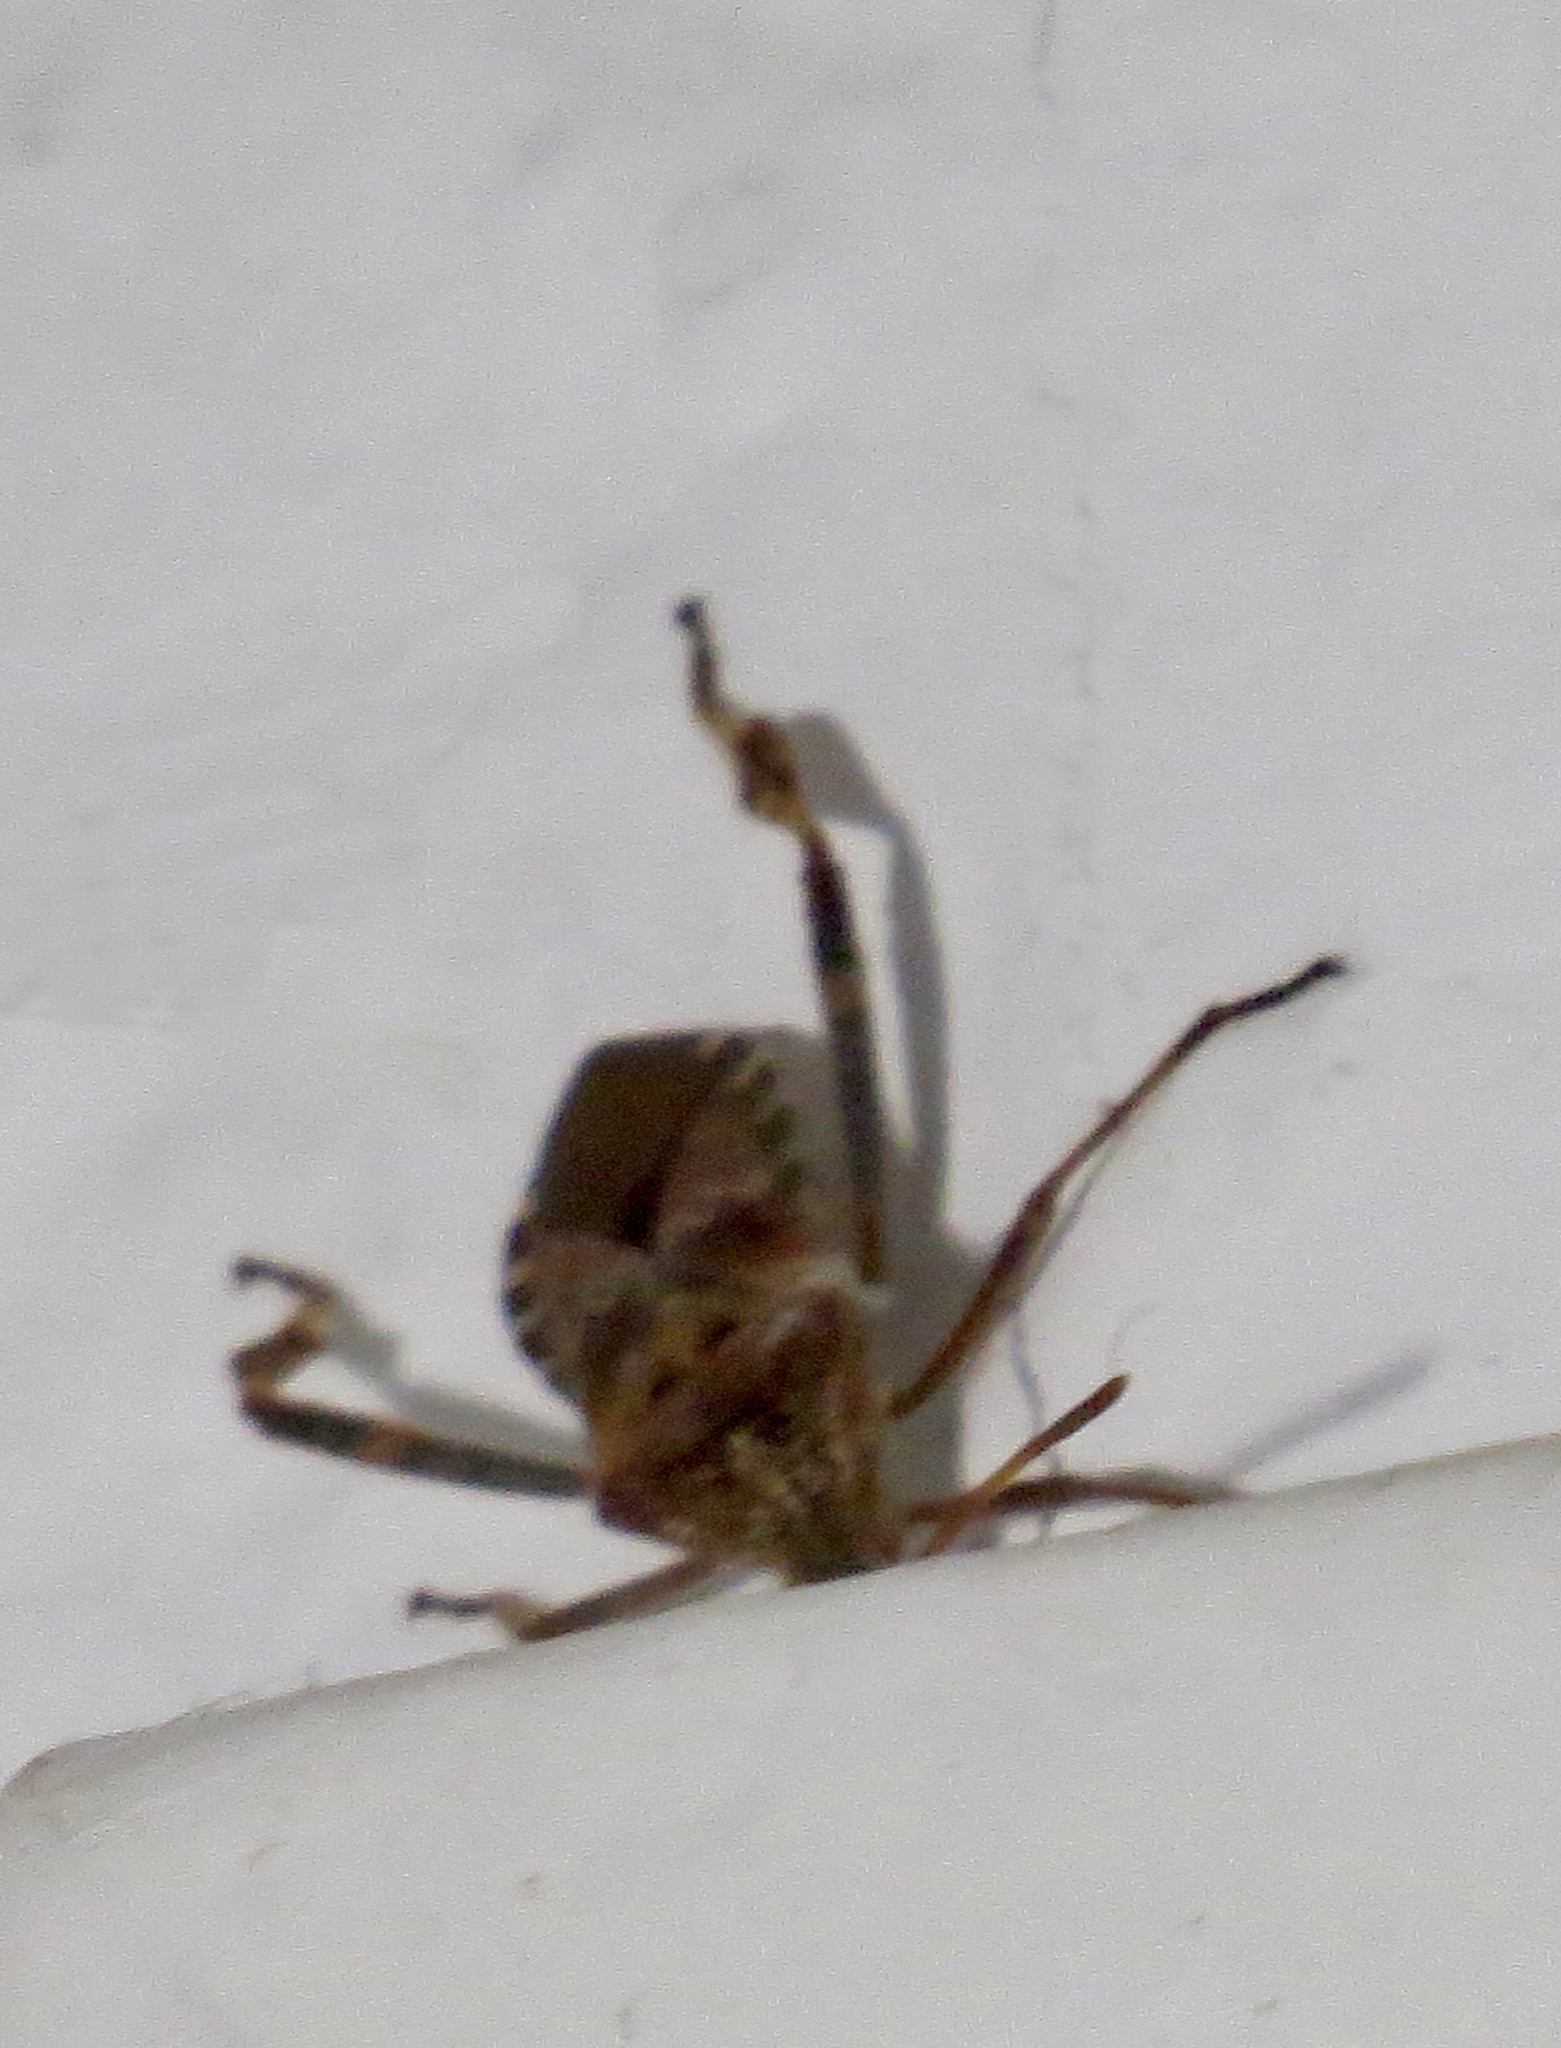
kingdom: Animalia
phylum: Arthropoda
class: Insecta
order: Hemiptera
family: Coreidae
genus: Leptoglossus
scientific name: Leptoglossus occidentalis
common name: Western conifer-seed bug
